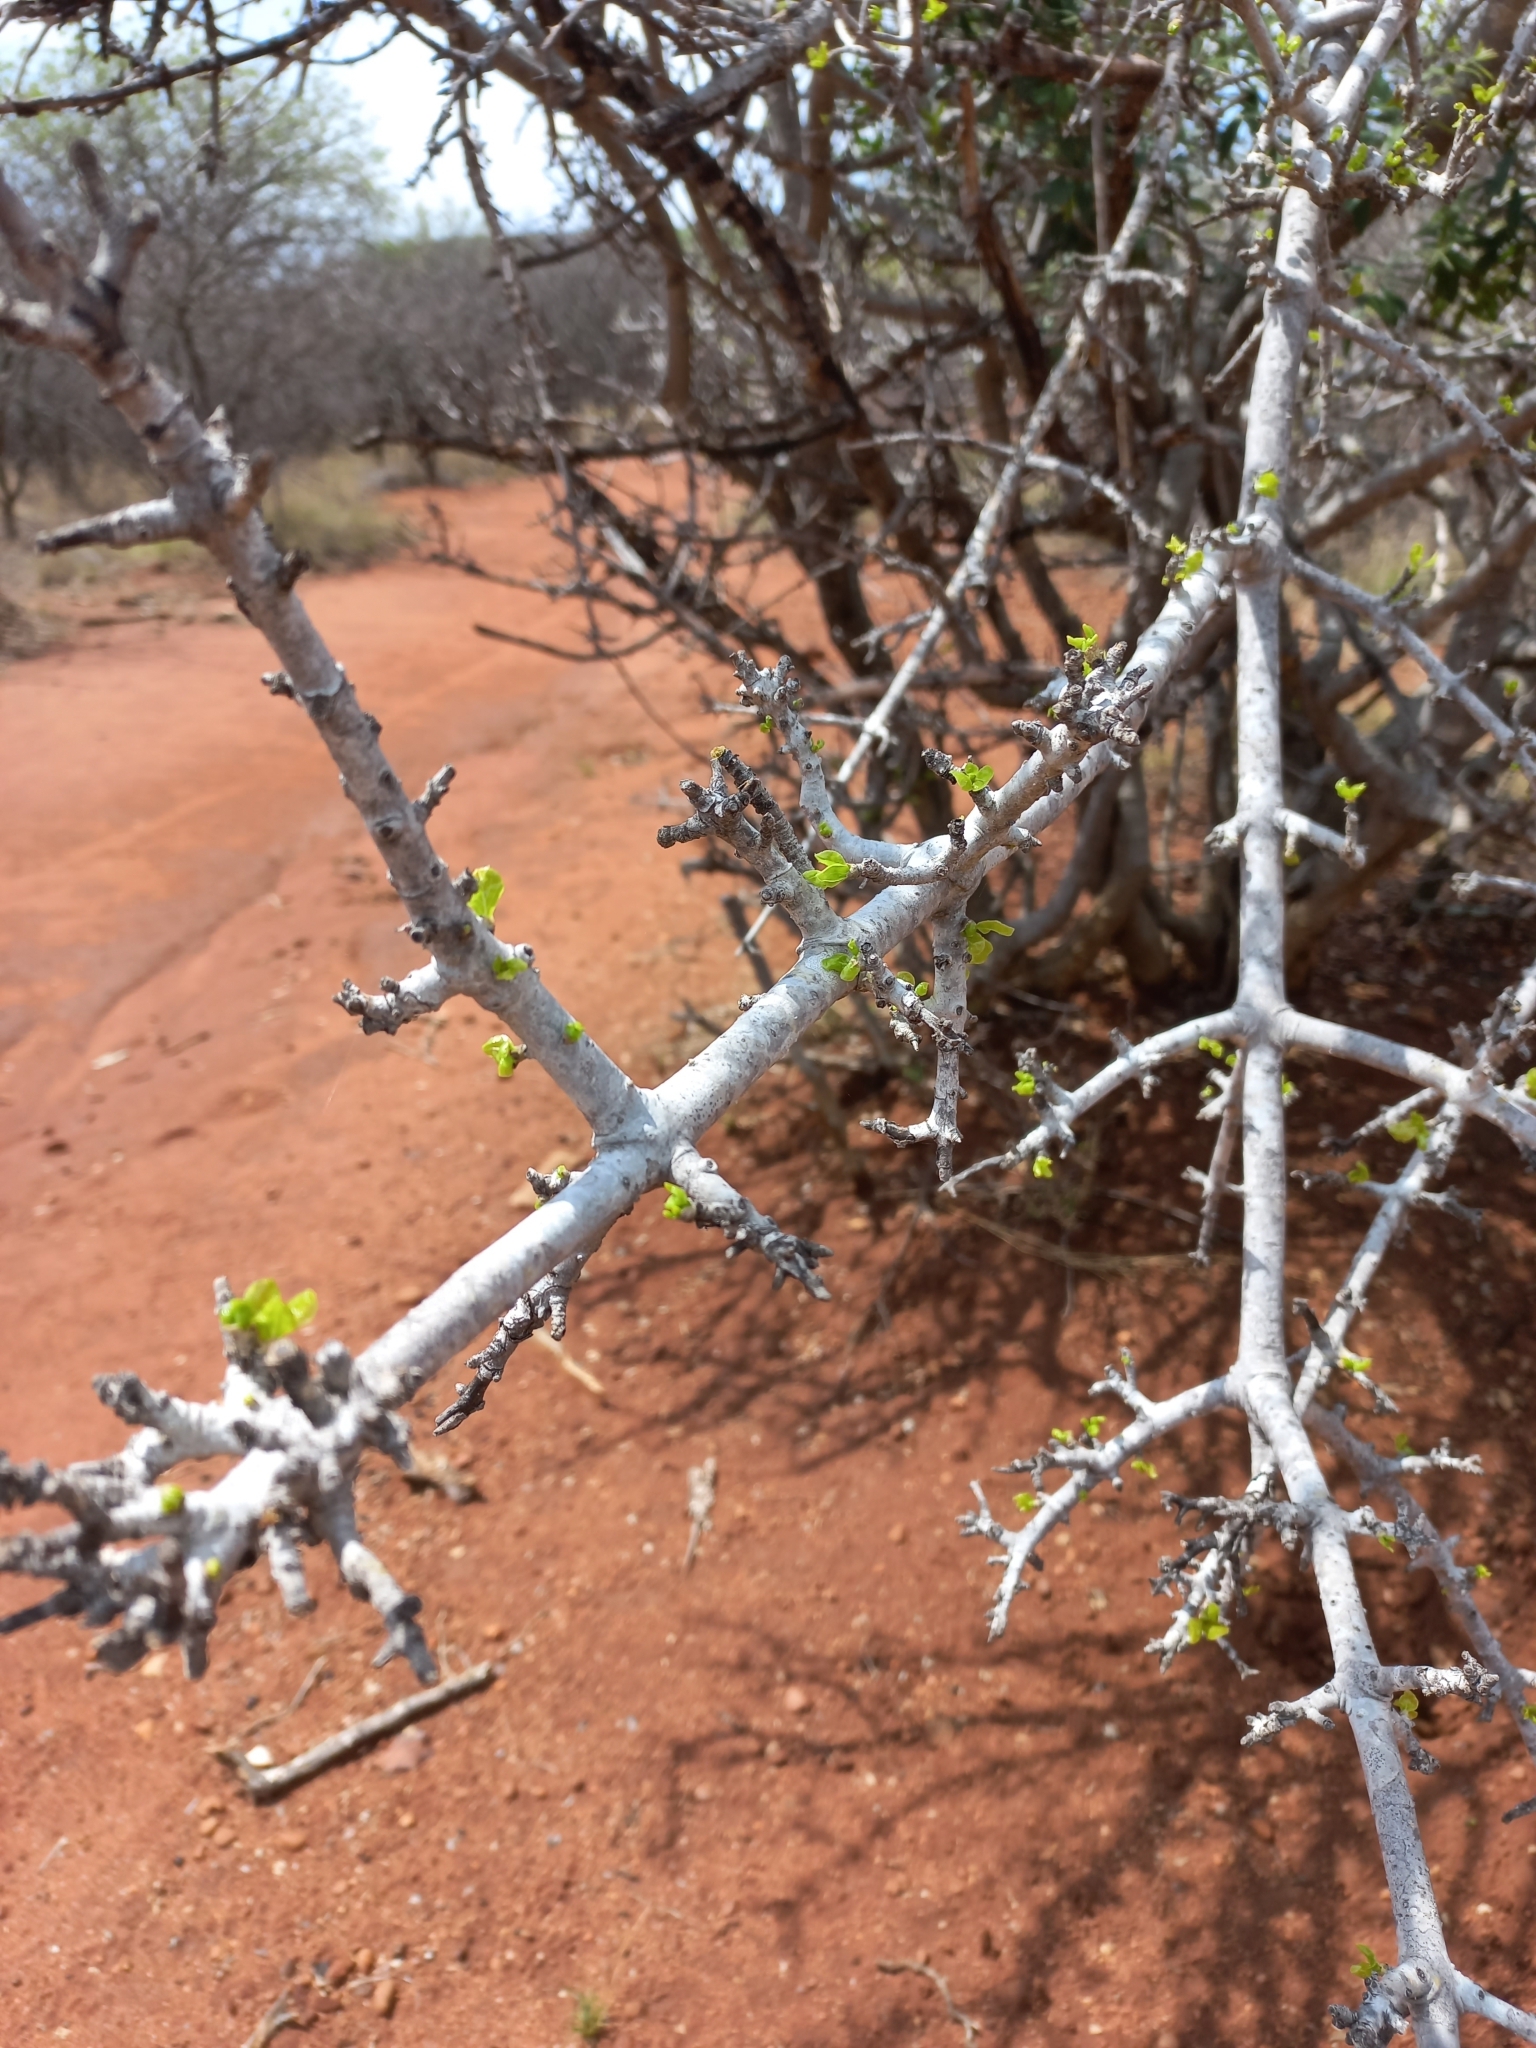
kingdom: Plantae
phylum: Tracheophyta
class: Magnoliopsida
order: Gentianales
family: Rubiaceae
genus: Gardenia
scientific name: Gardenia volkensii
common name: Common gardenia
